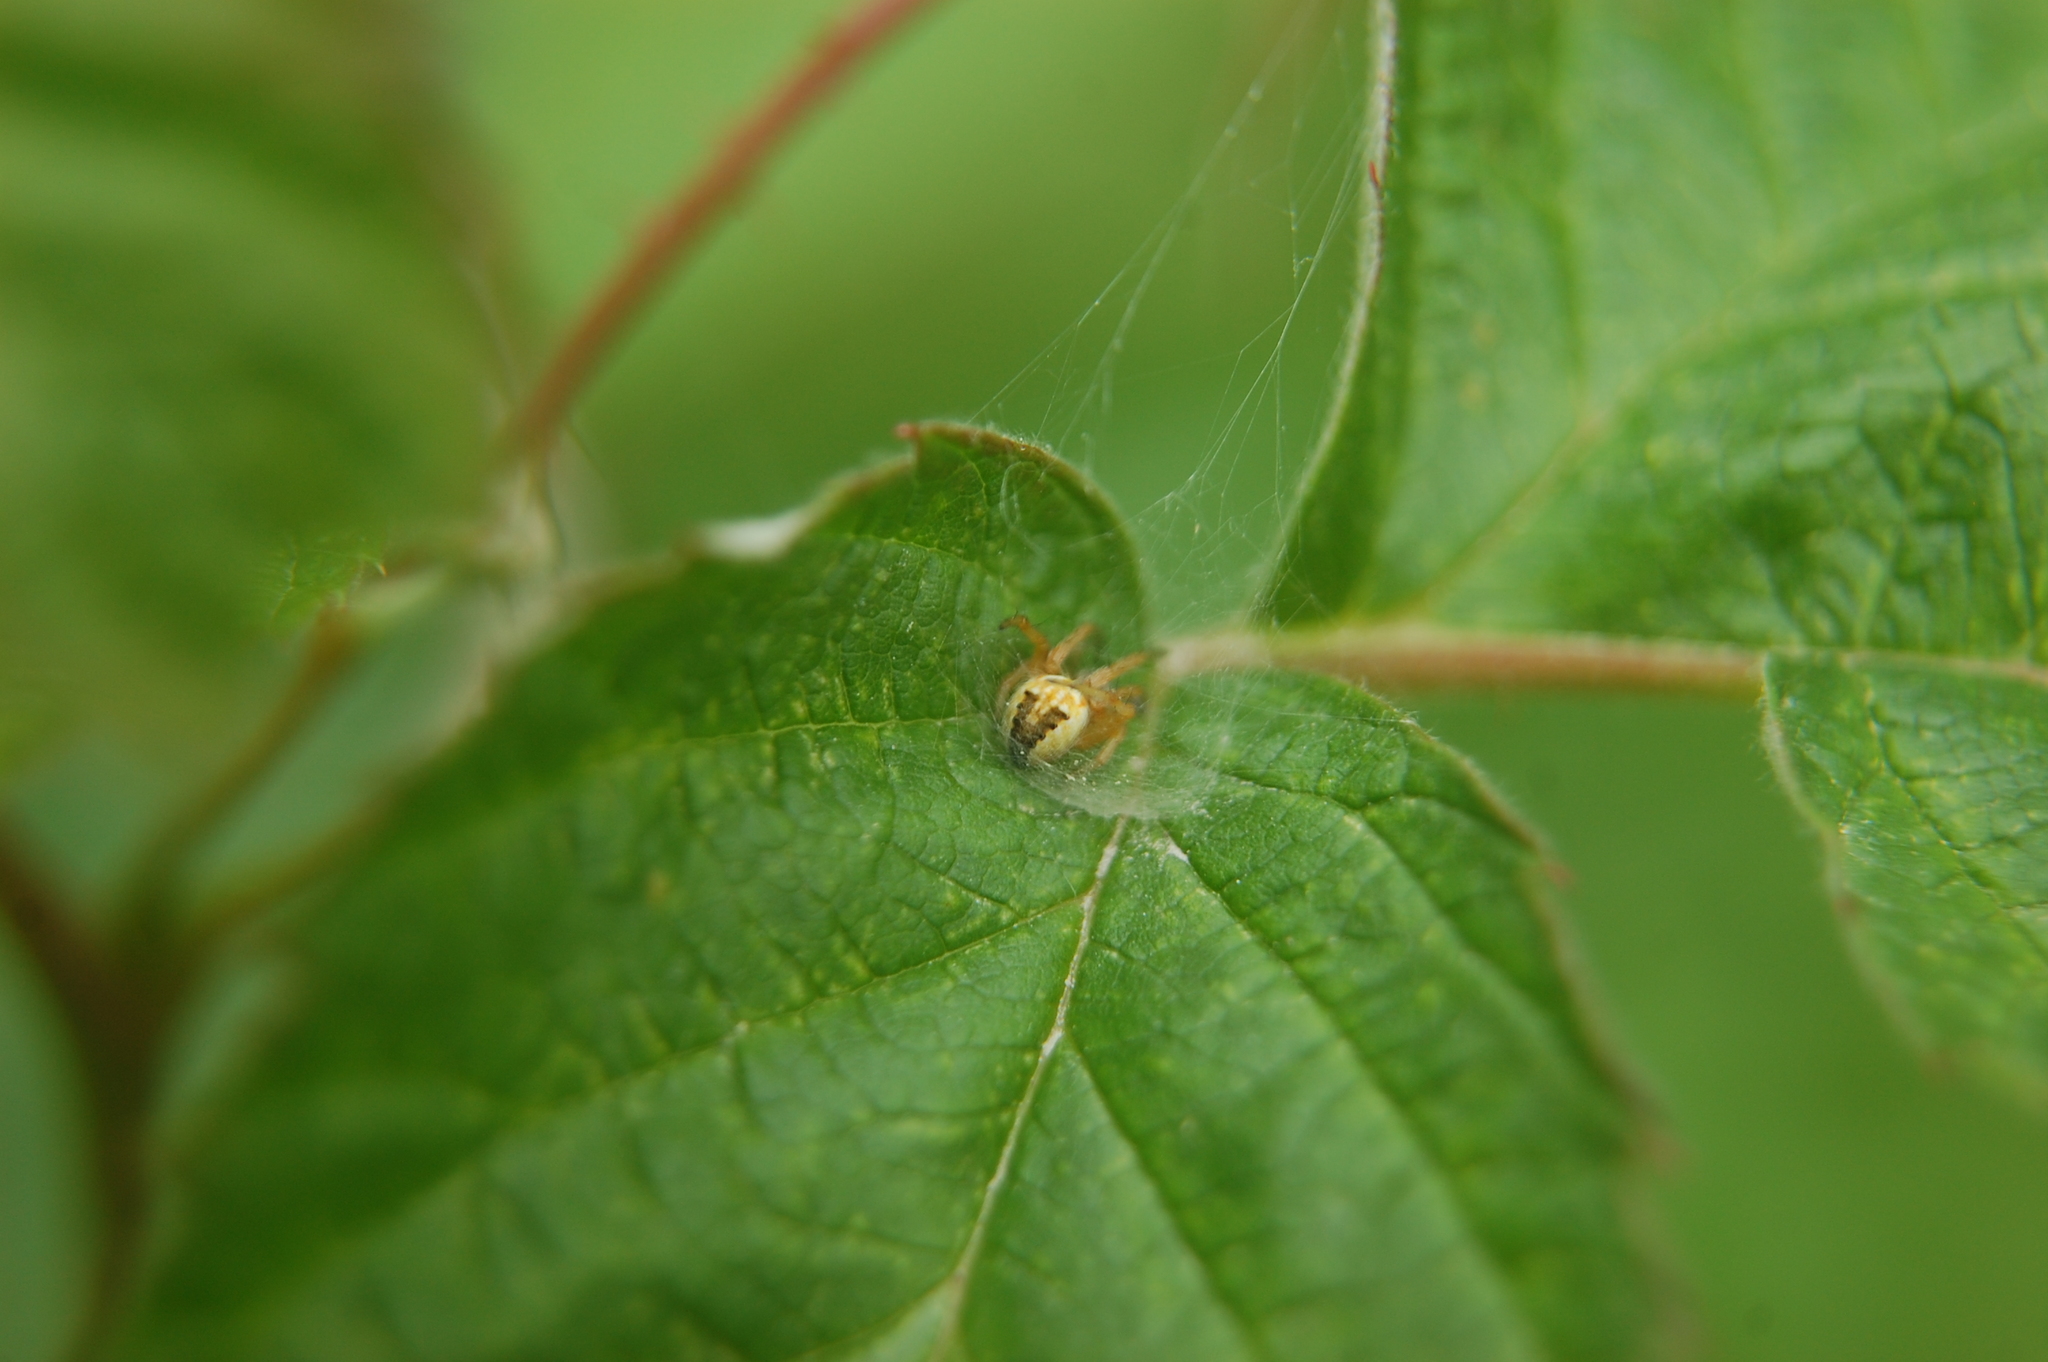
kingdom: Animalia
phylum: Arthropoda
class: Arachnida
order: Araneae
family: Araneidae
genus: Neoscona
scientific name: Neoscona arabesca
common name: Orb weavers
